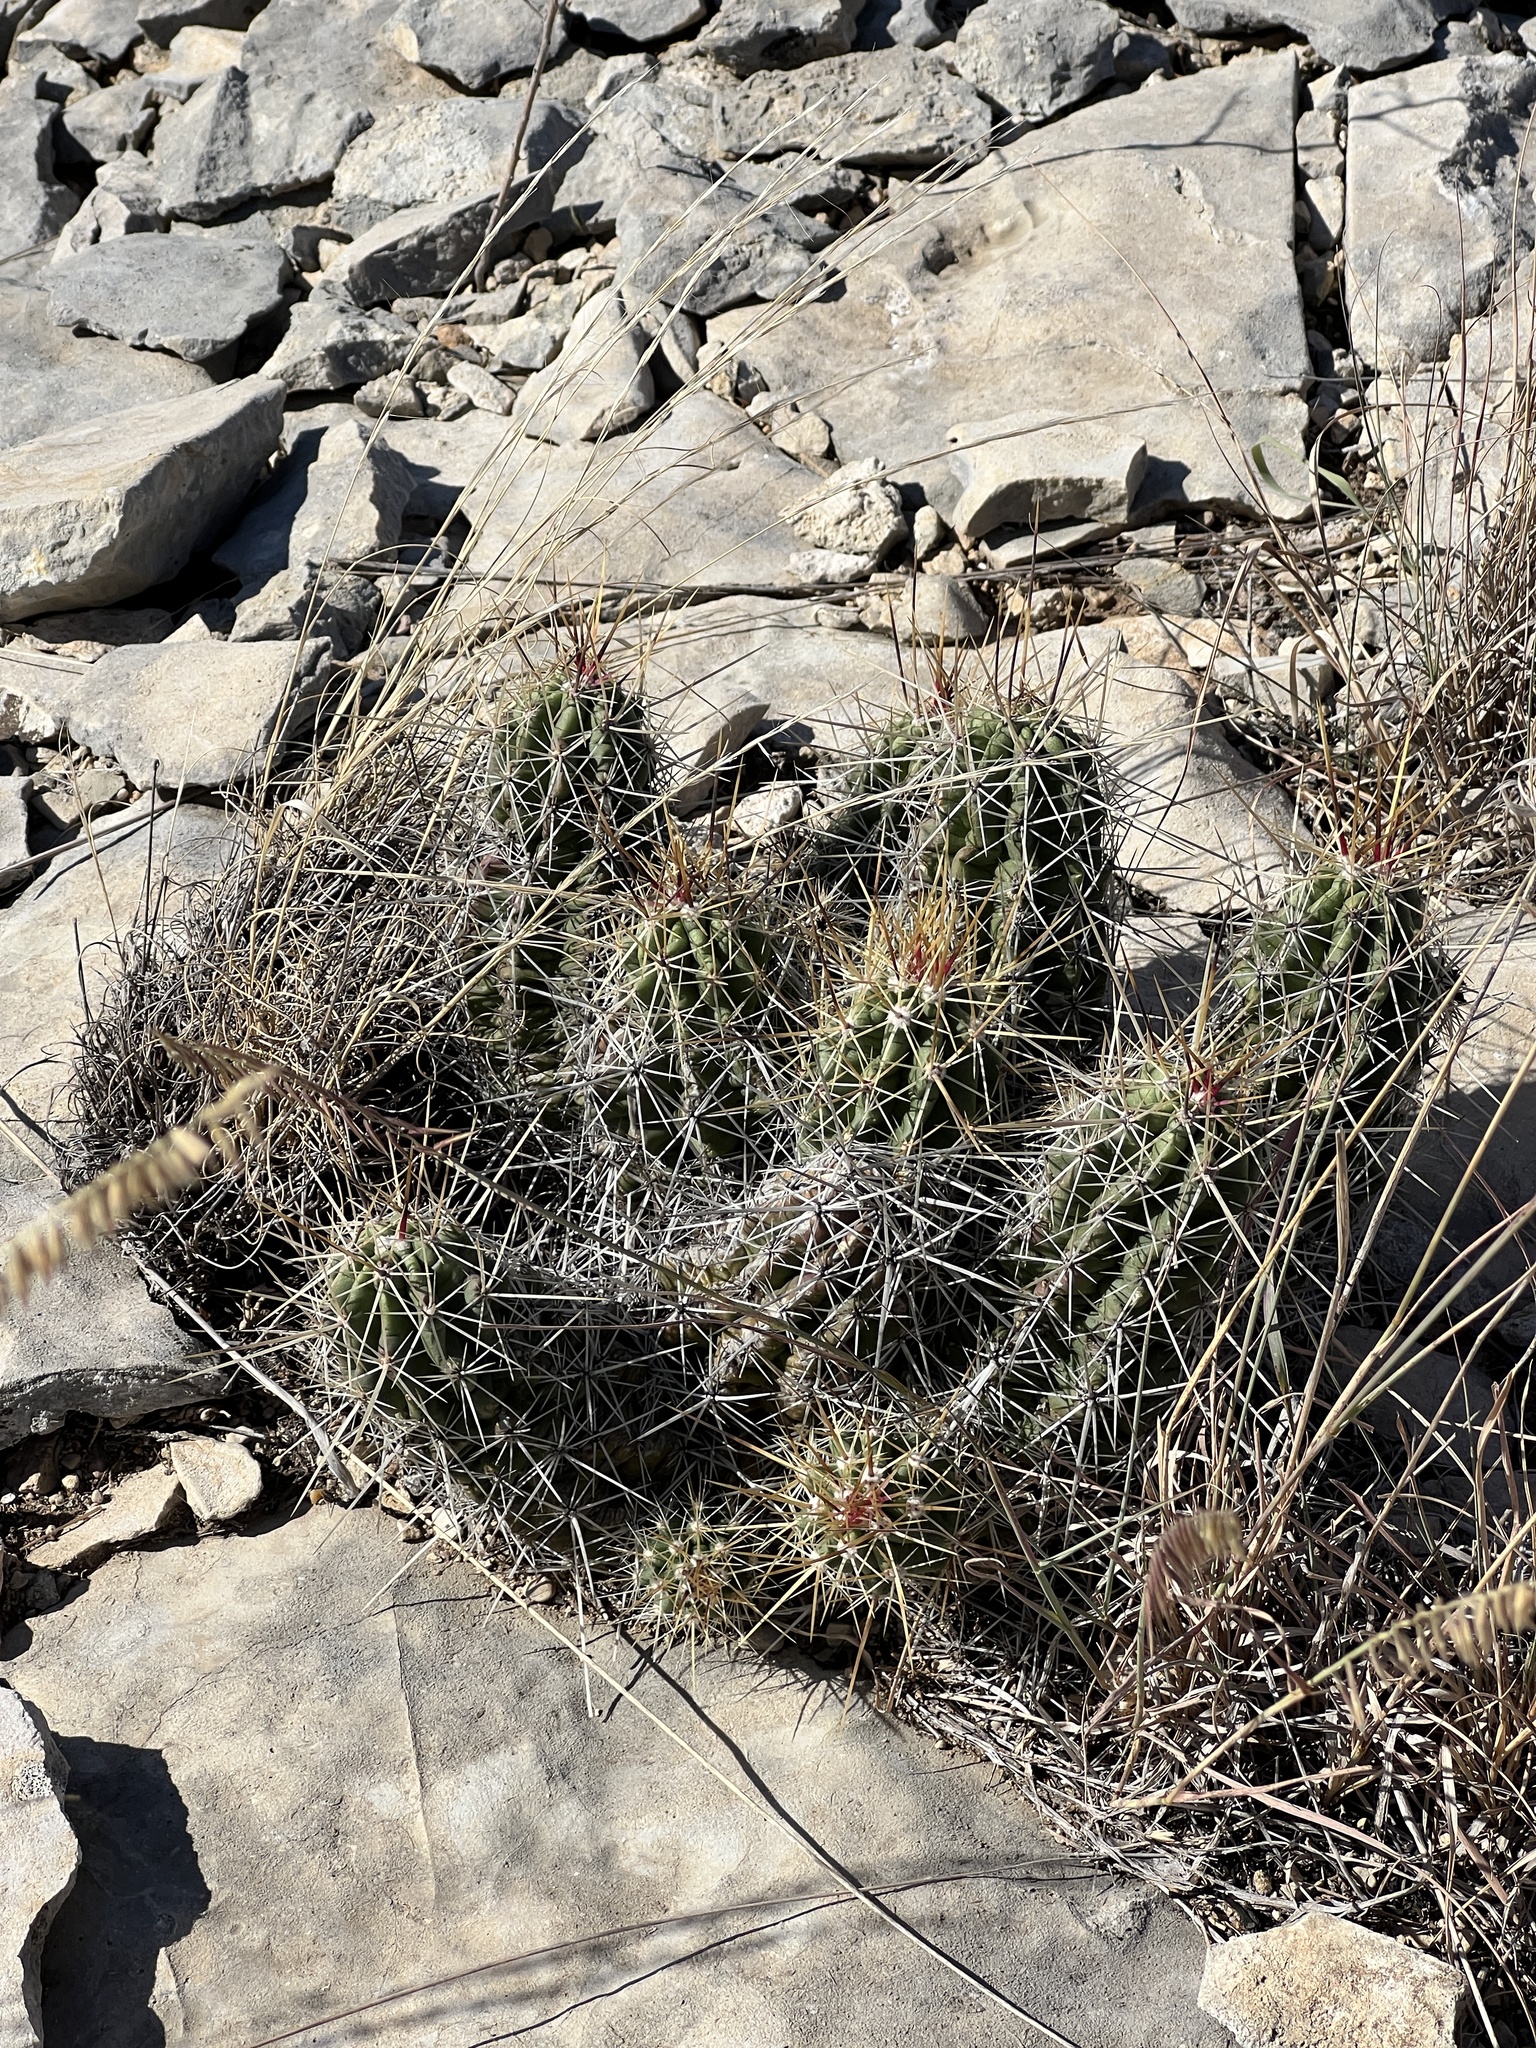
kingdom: Plantae
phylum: Tracheophyta
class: Magnoliopsida
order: Caryophyllales
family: Cactaceae
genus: Echinocereus
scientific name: Echinocereus enneacanthus
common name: Pitaya
